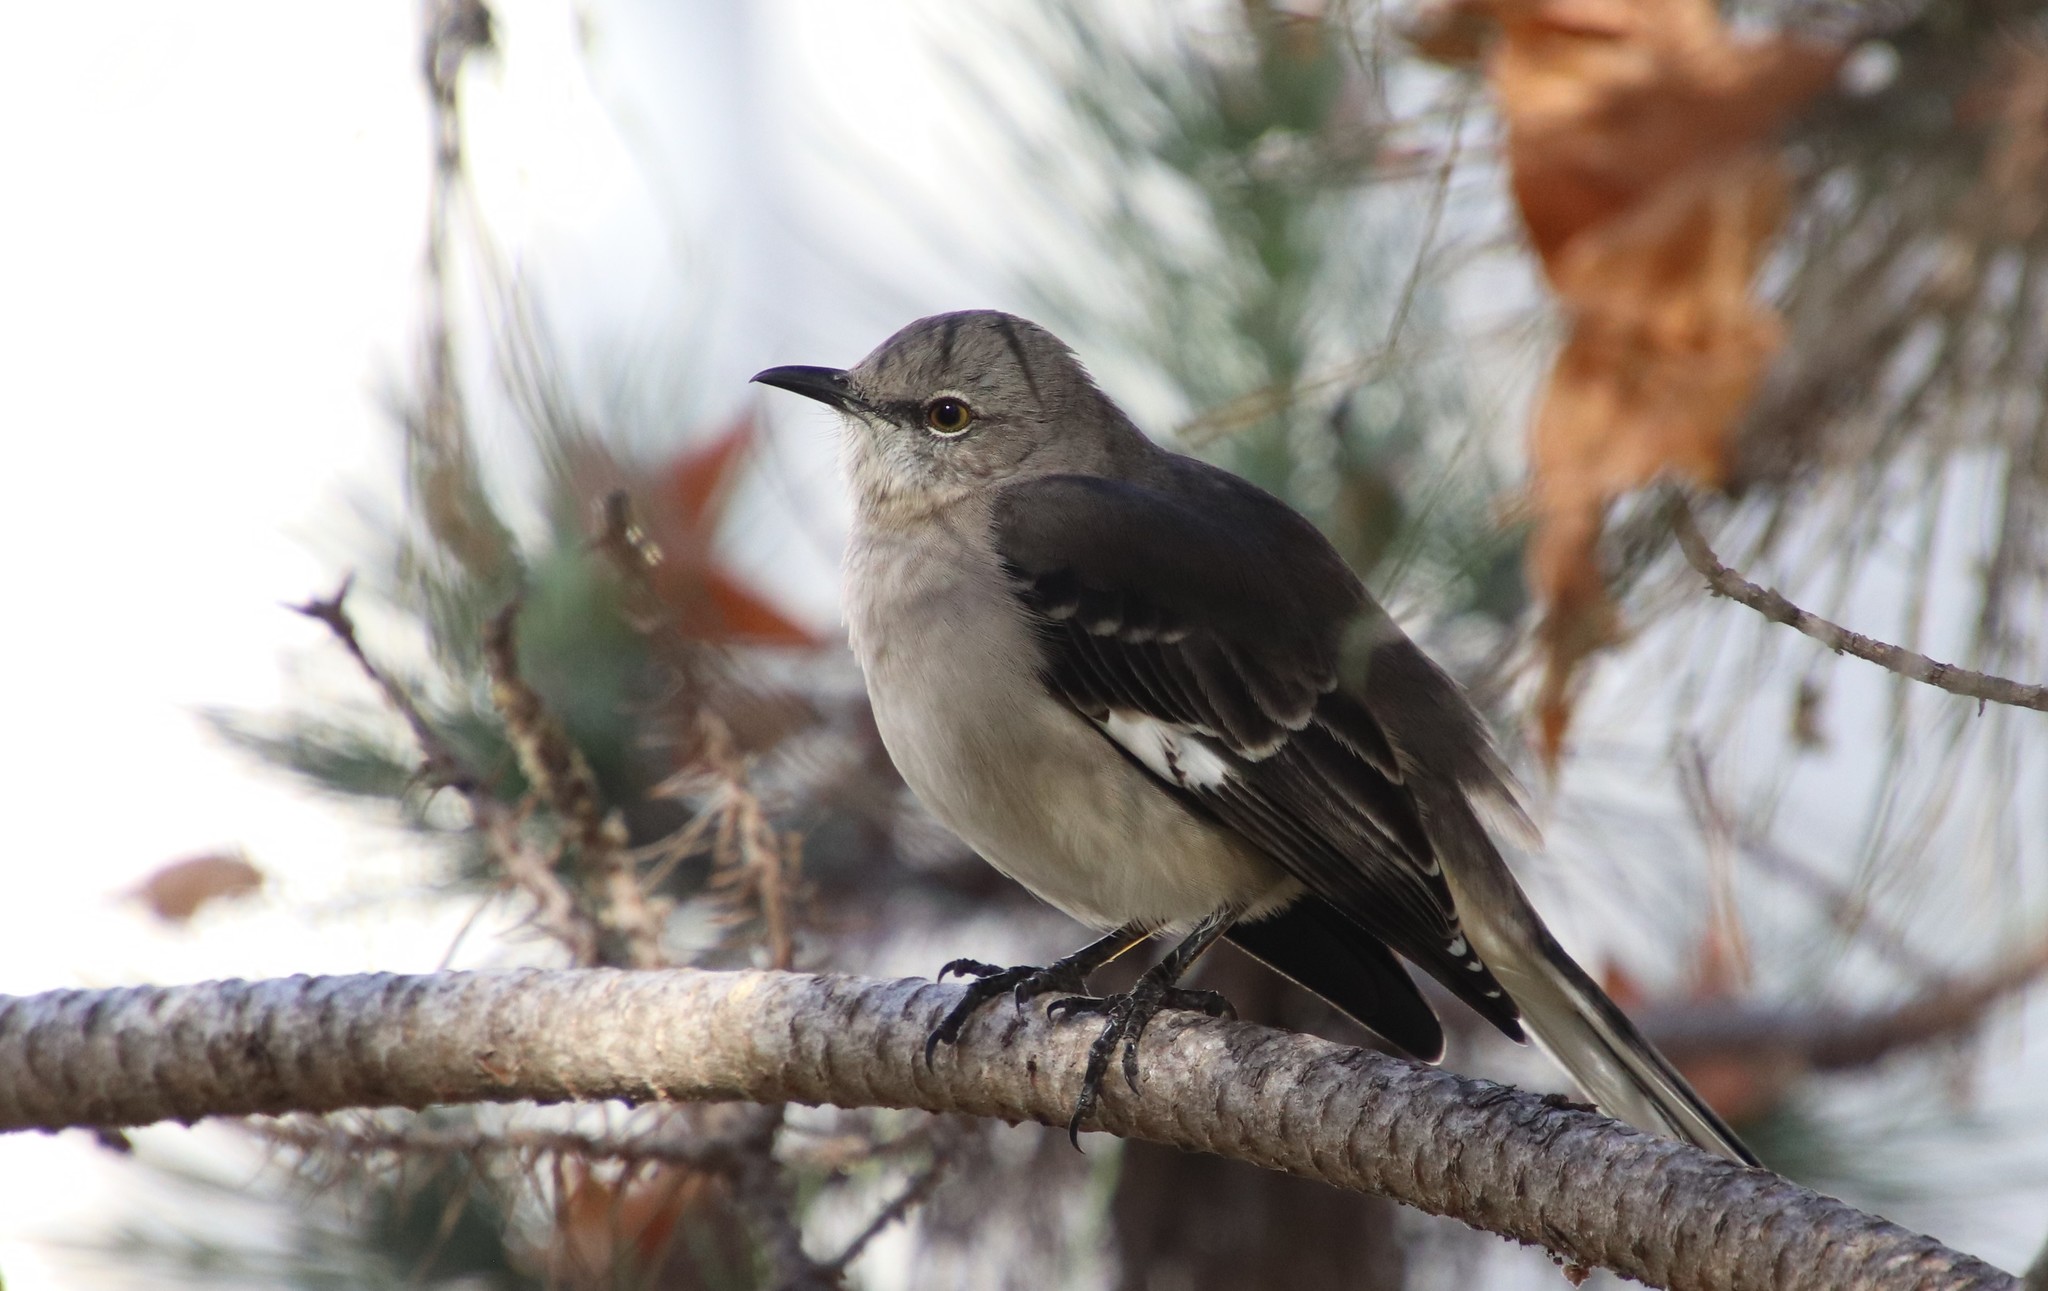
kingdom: Animalia
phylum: Chordata
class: Aves
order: Passeriformes
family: Mimidae
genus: Mimus
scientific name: Mimus polyglottos
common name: Northern mockingbird
